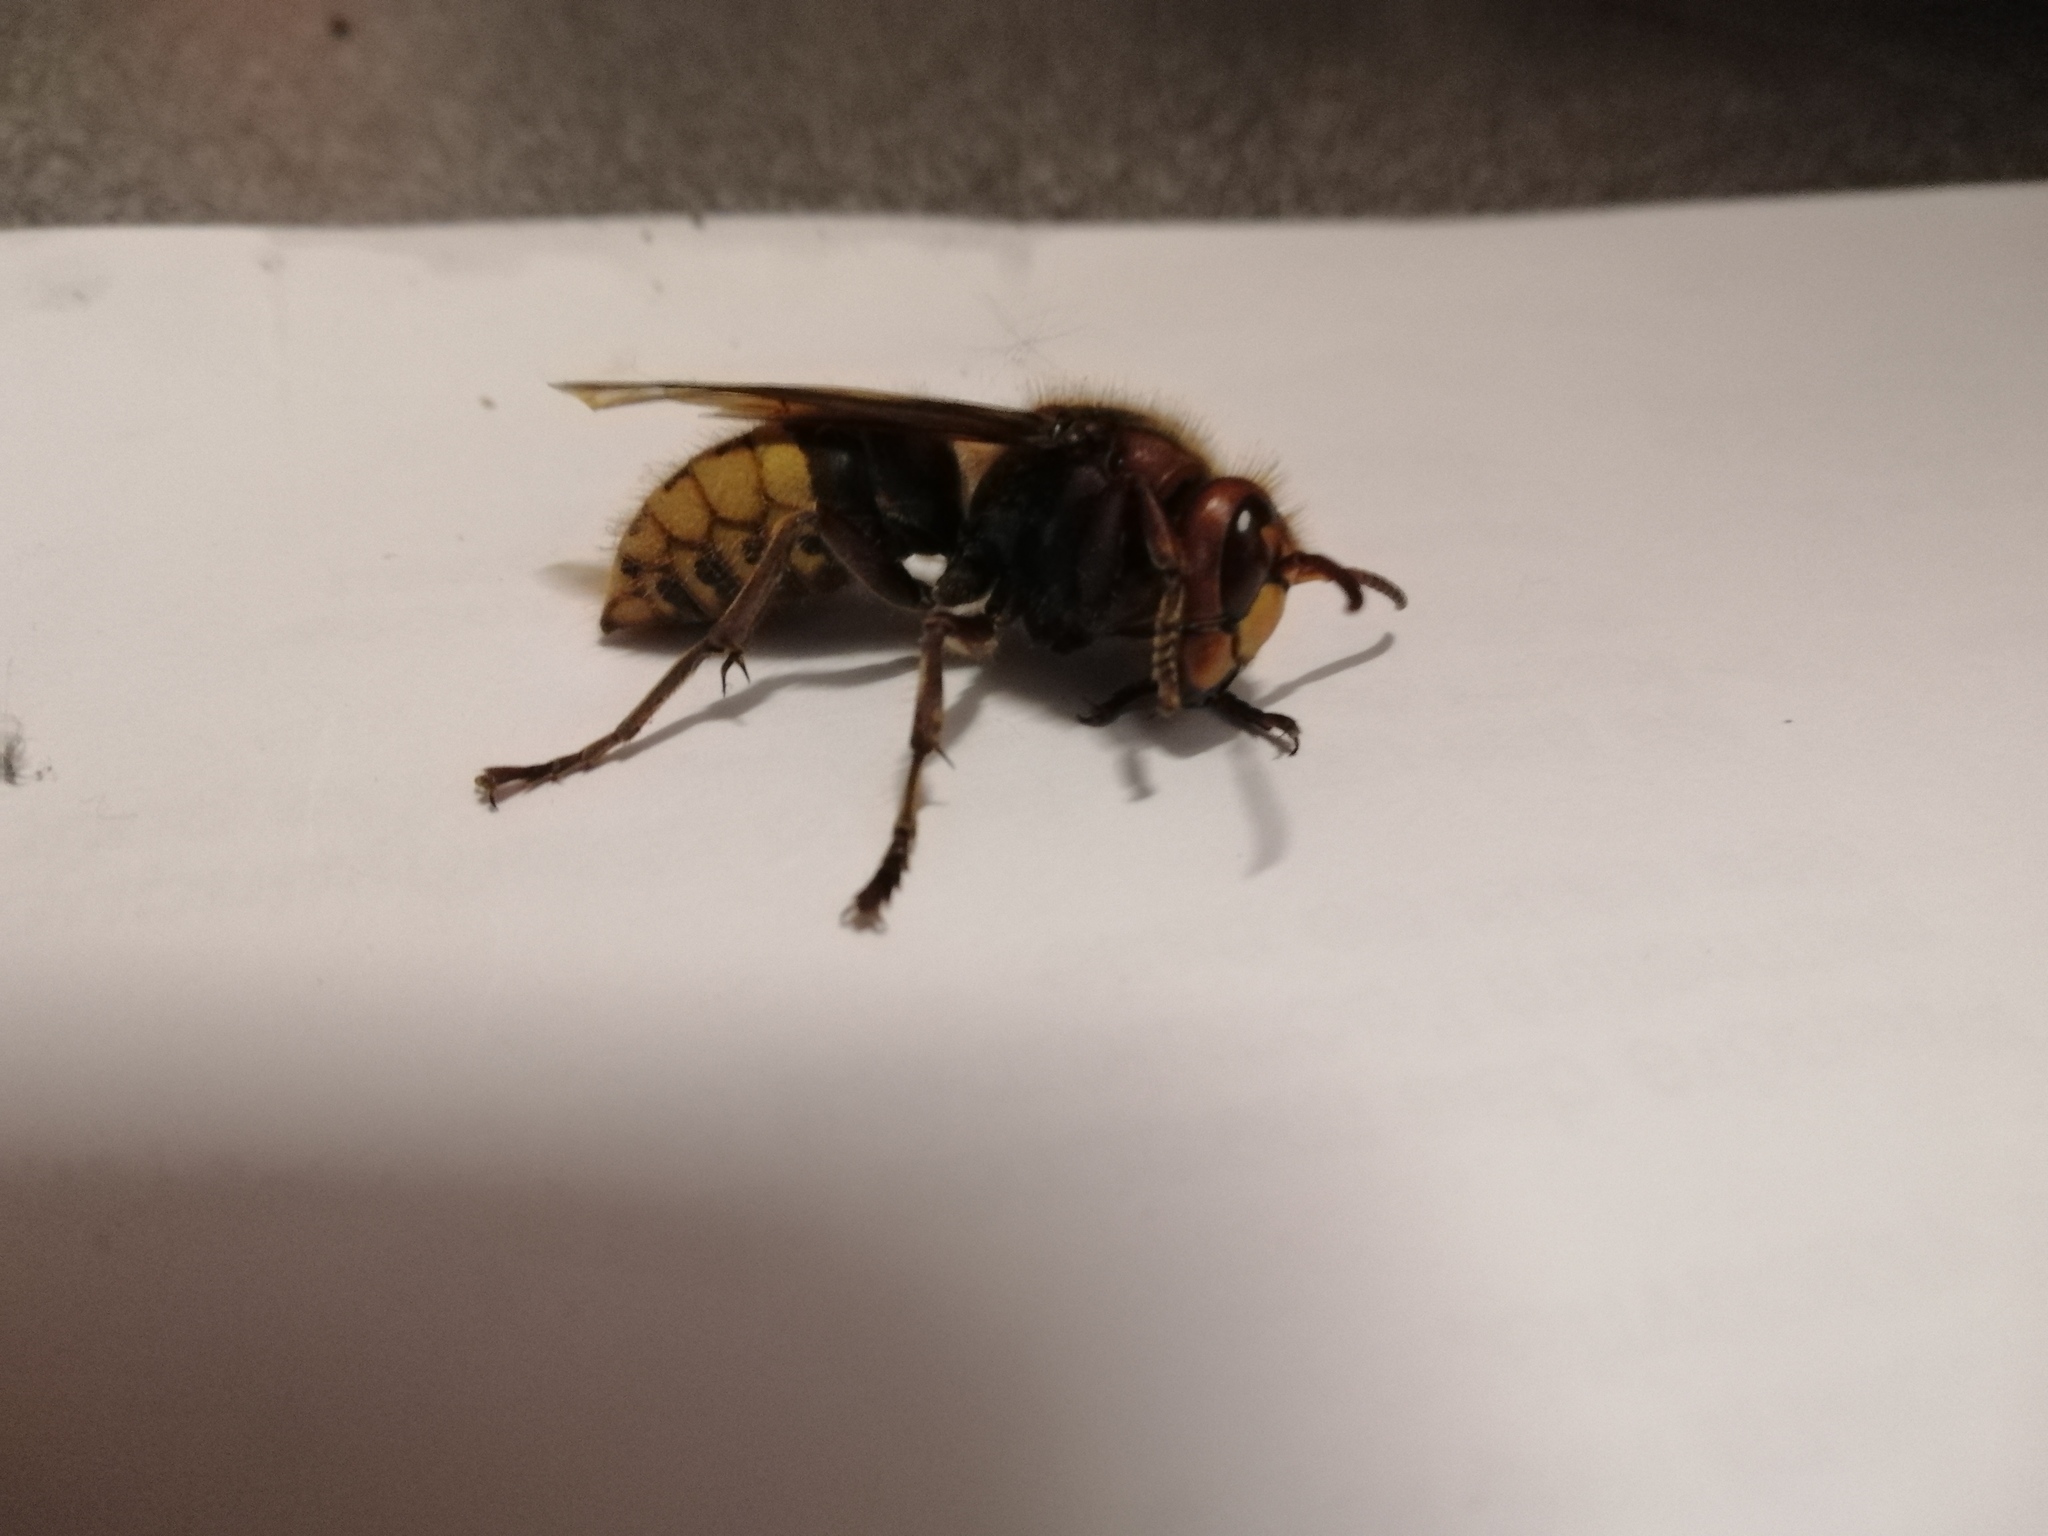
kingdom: Animalia
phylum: Arthropoda
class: Insecta
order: Hymenoptera
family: Vespidae
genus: Vespa
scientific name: Vespa crabro
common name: Hornet
